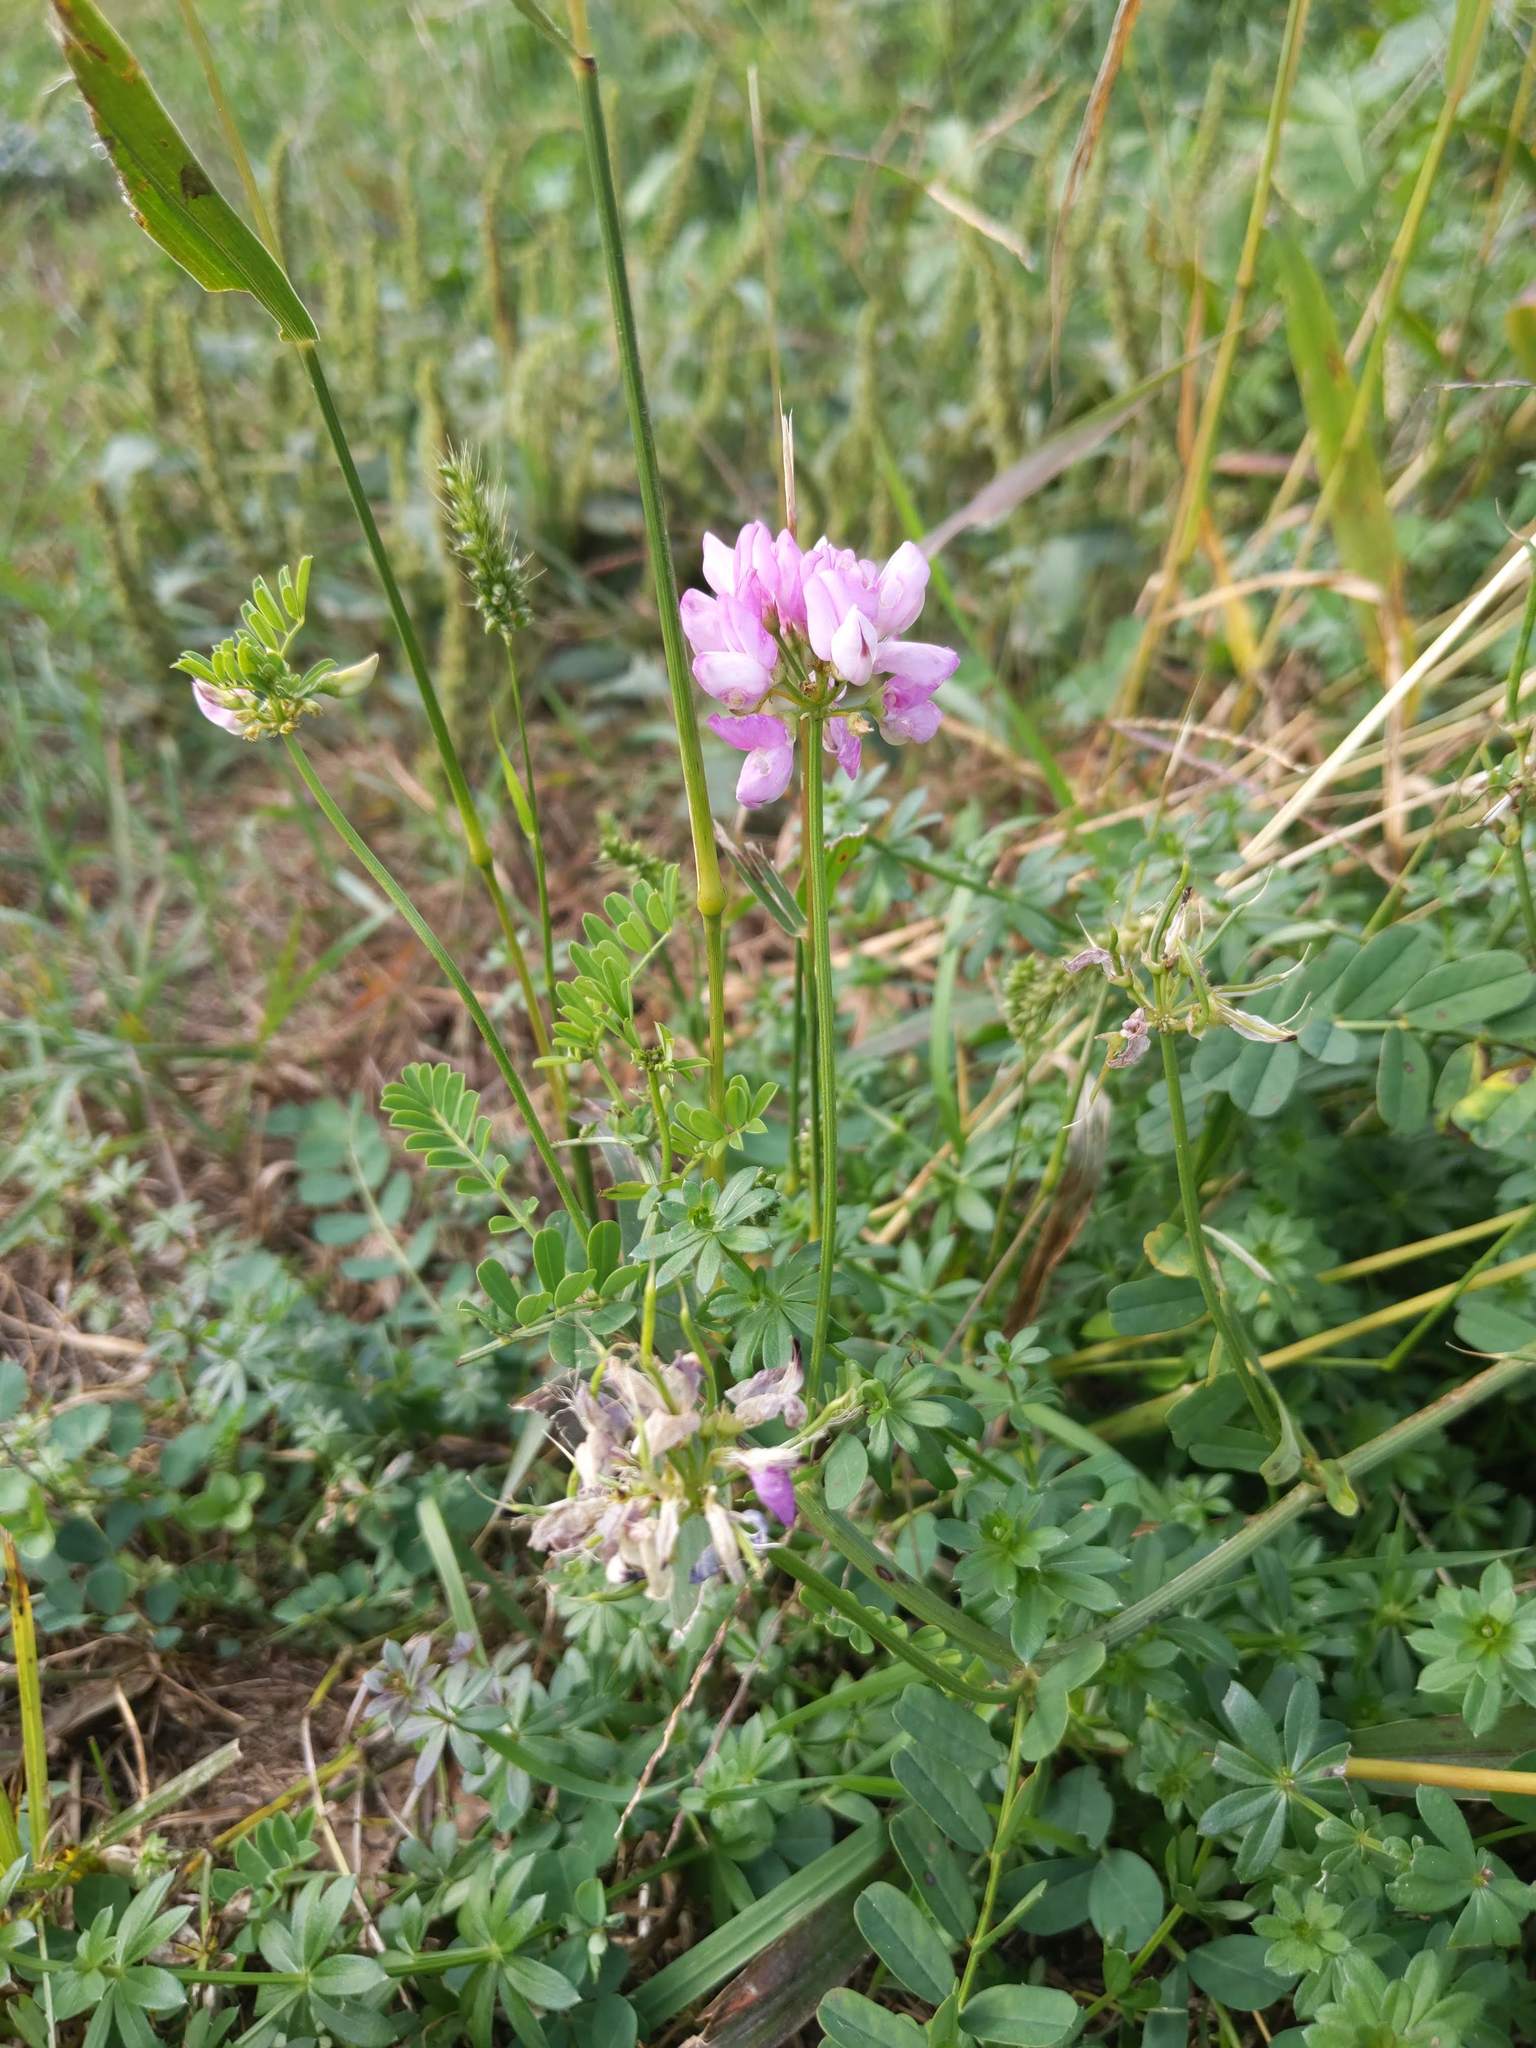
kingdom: Plantae
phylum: Tracheophyta
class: Magnoliopsida
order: Fabales
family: Fabaceae
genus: Coronilla
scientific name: Coronilla varia
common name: Crownvetch
